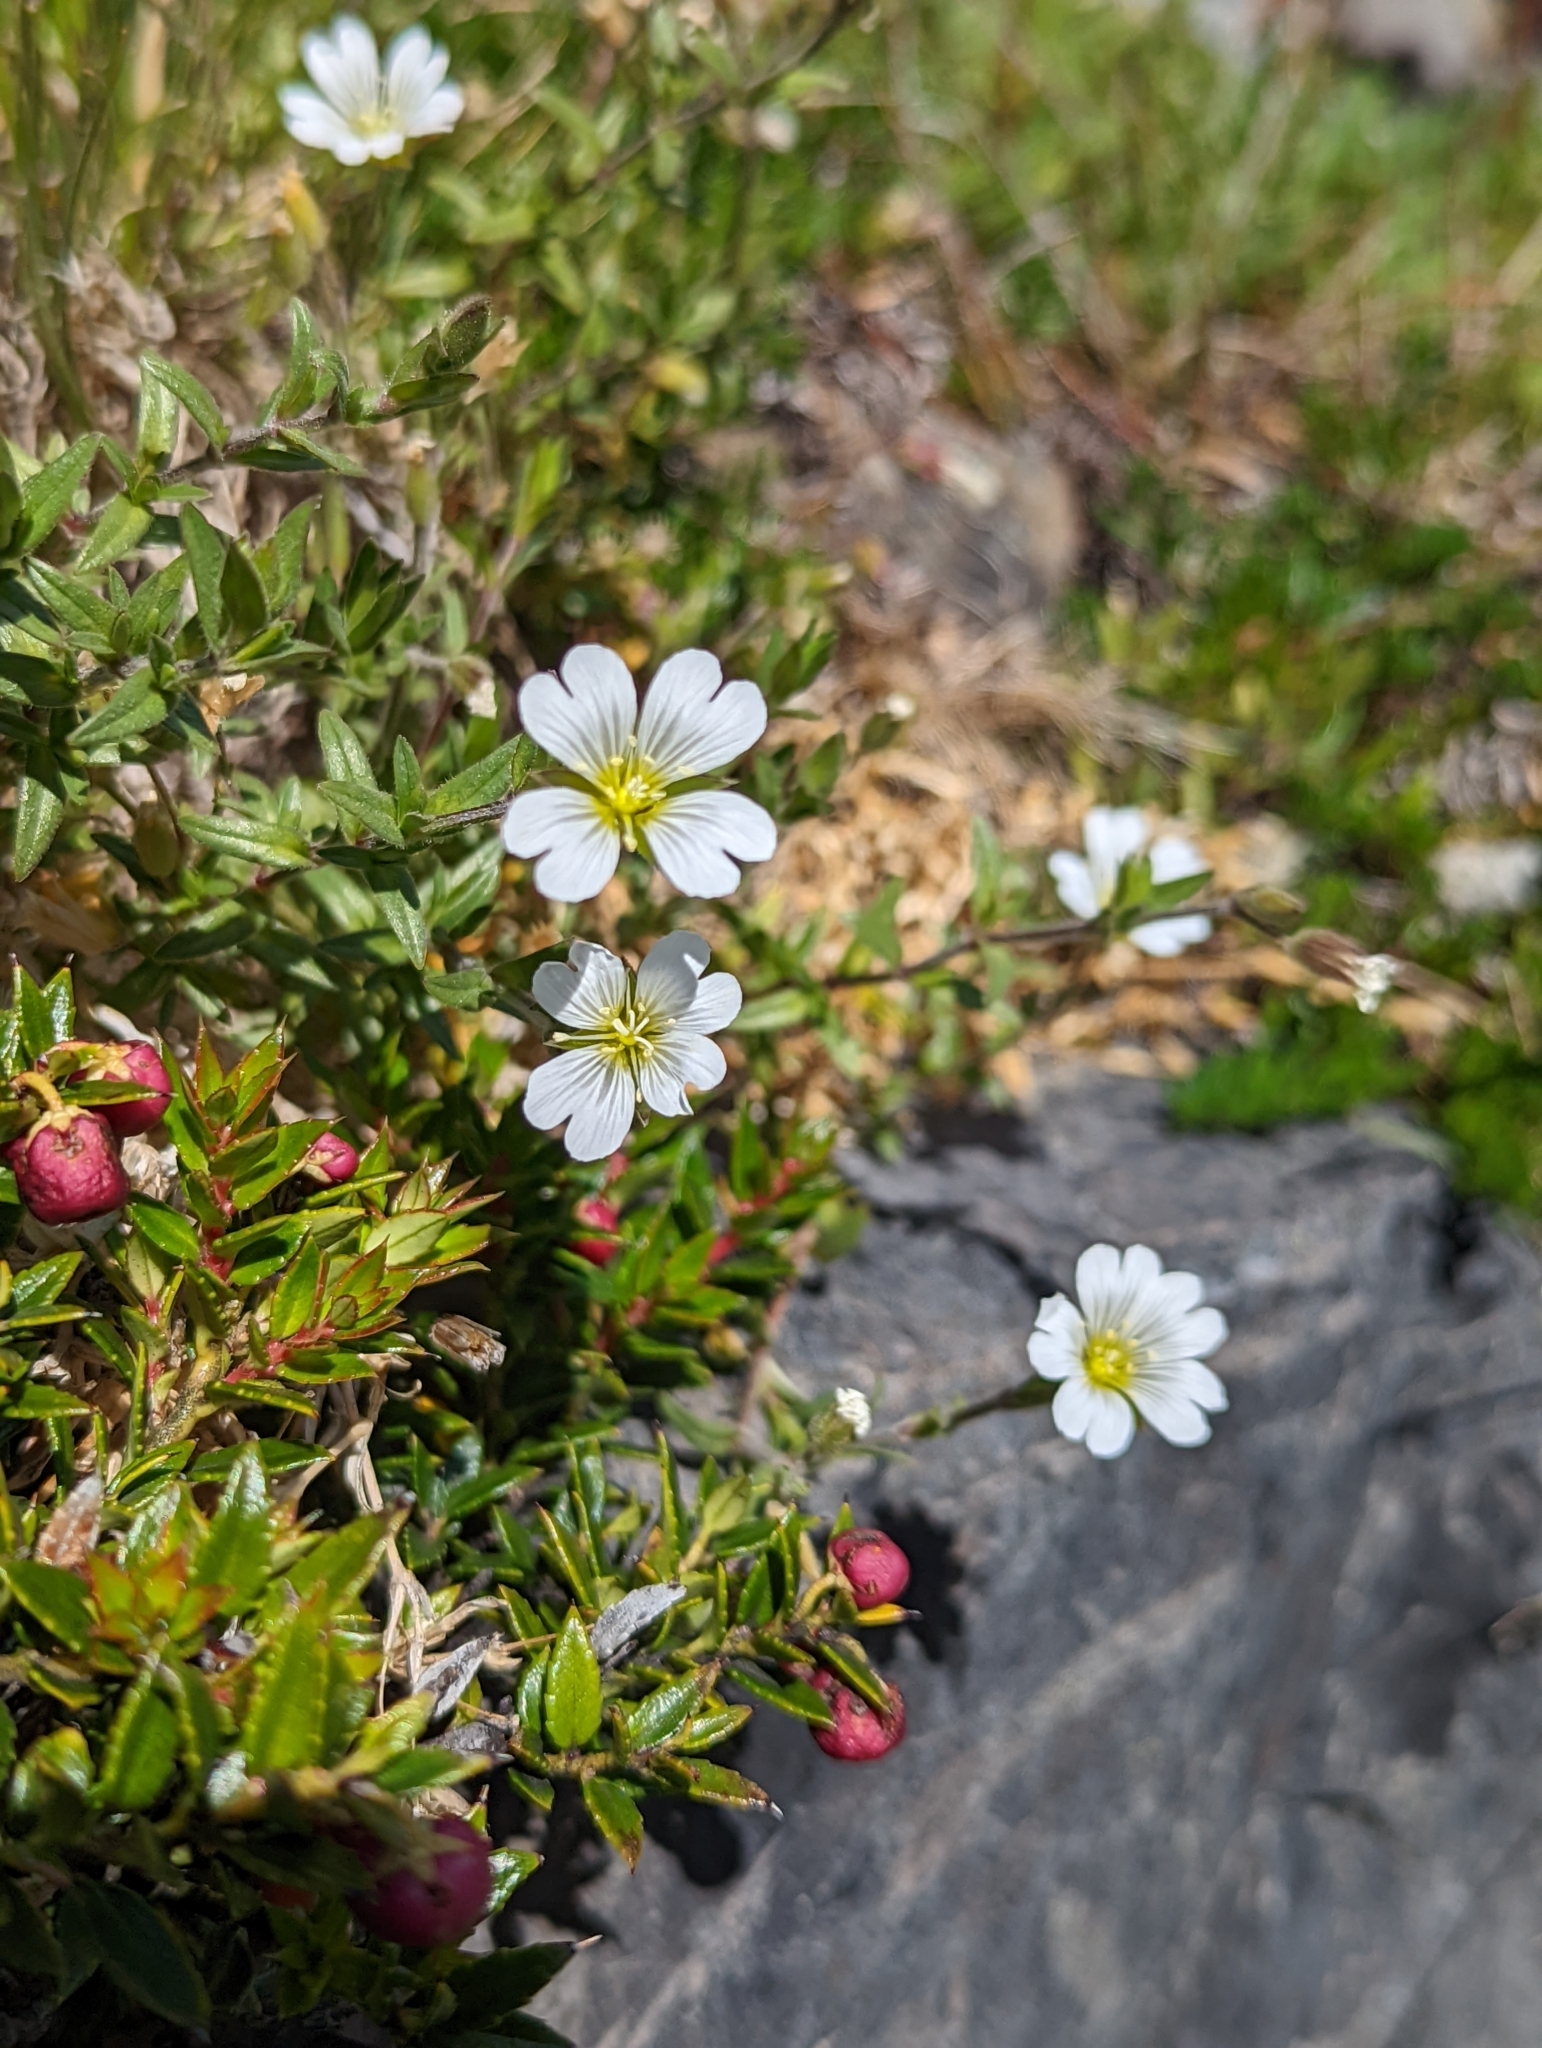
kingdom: Plantae
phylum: Tracheophyta
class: Magnoliopsida
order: Caryophyllales
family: Caryophyllaceae
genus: Cerastium
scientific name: Cerastium arvense
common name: Field mouse-ear
